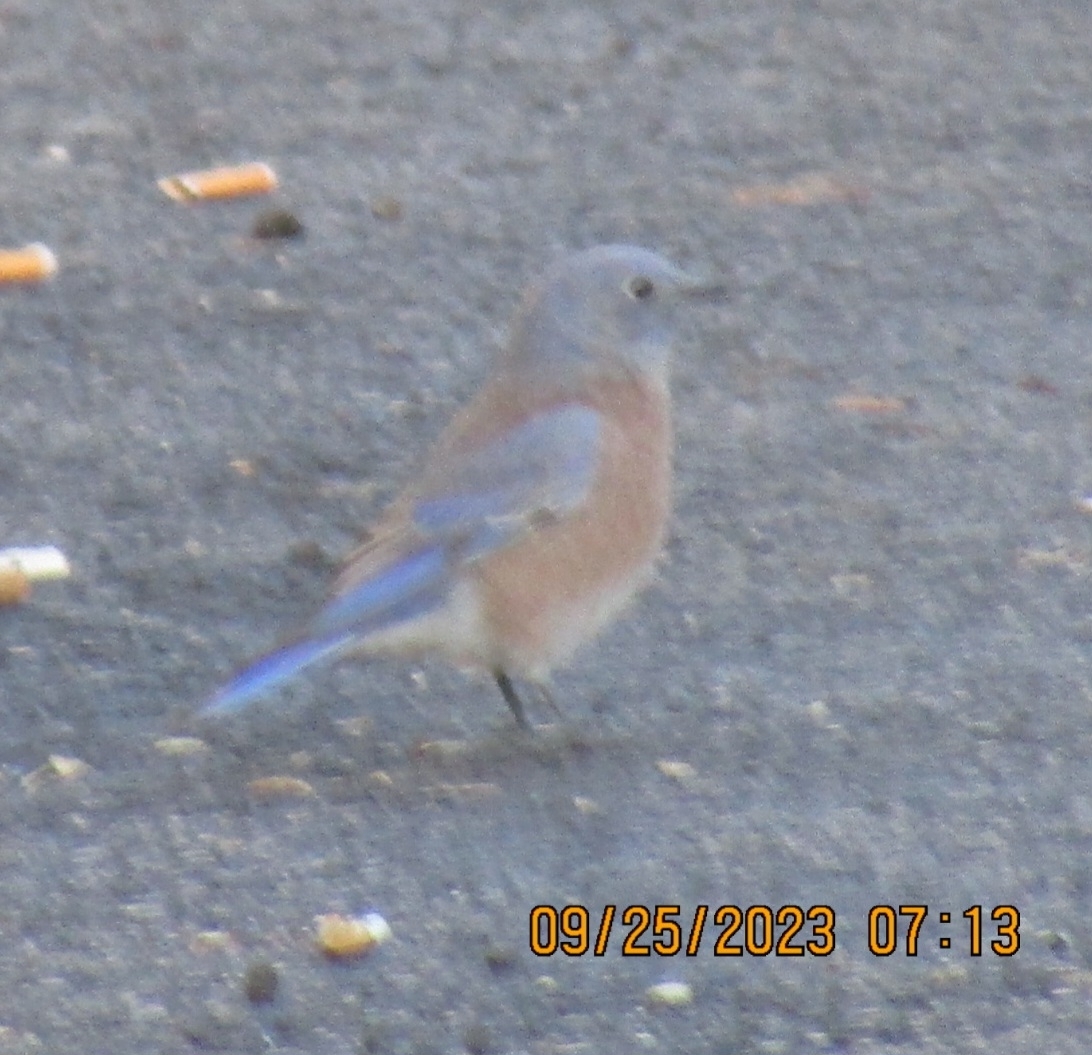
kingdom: Animalia
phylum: Chordata
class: Aves
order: Passeriformes
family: Turdidae
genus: Sialia
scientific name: Sialia mexicana
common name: Western bluebird
